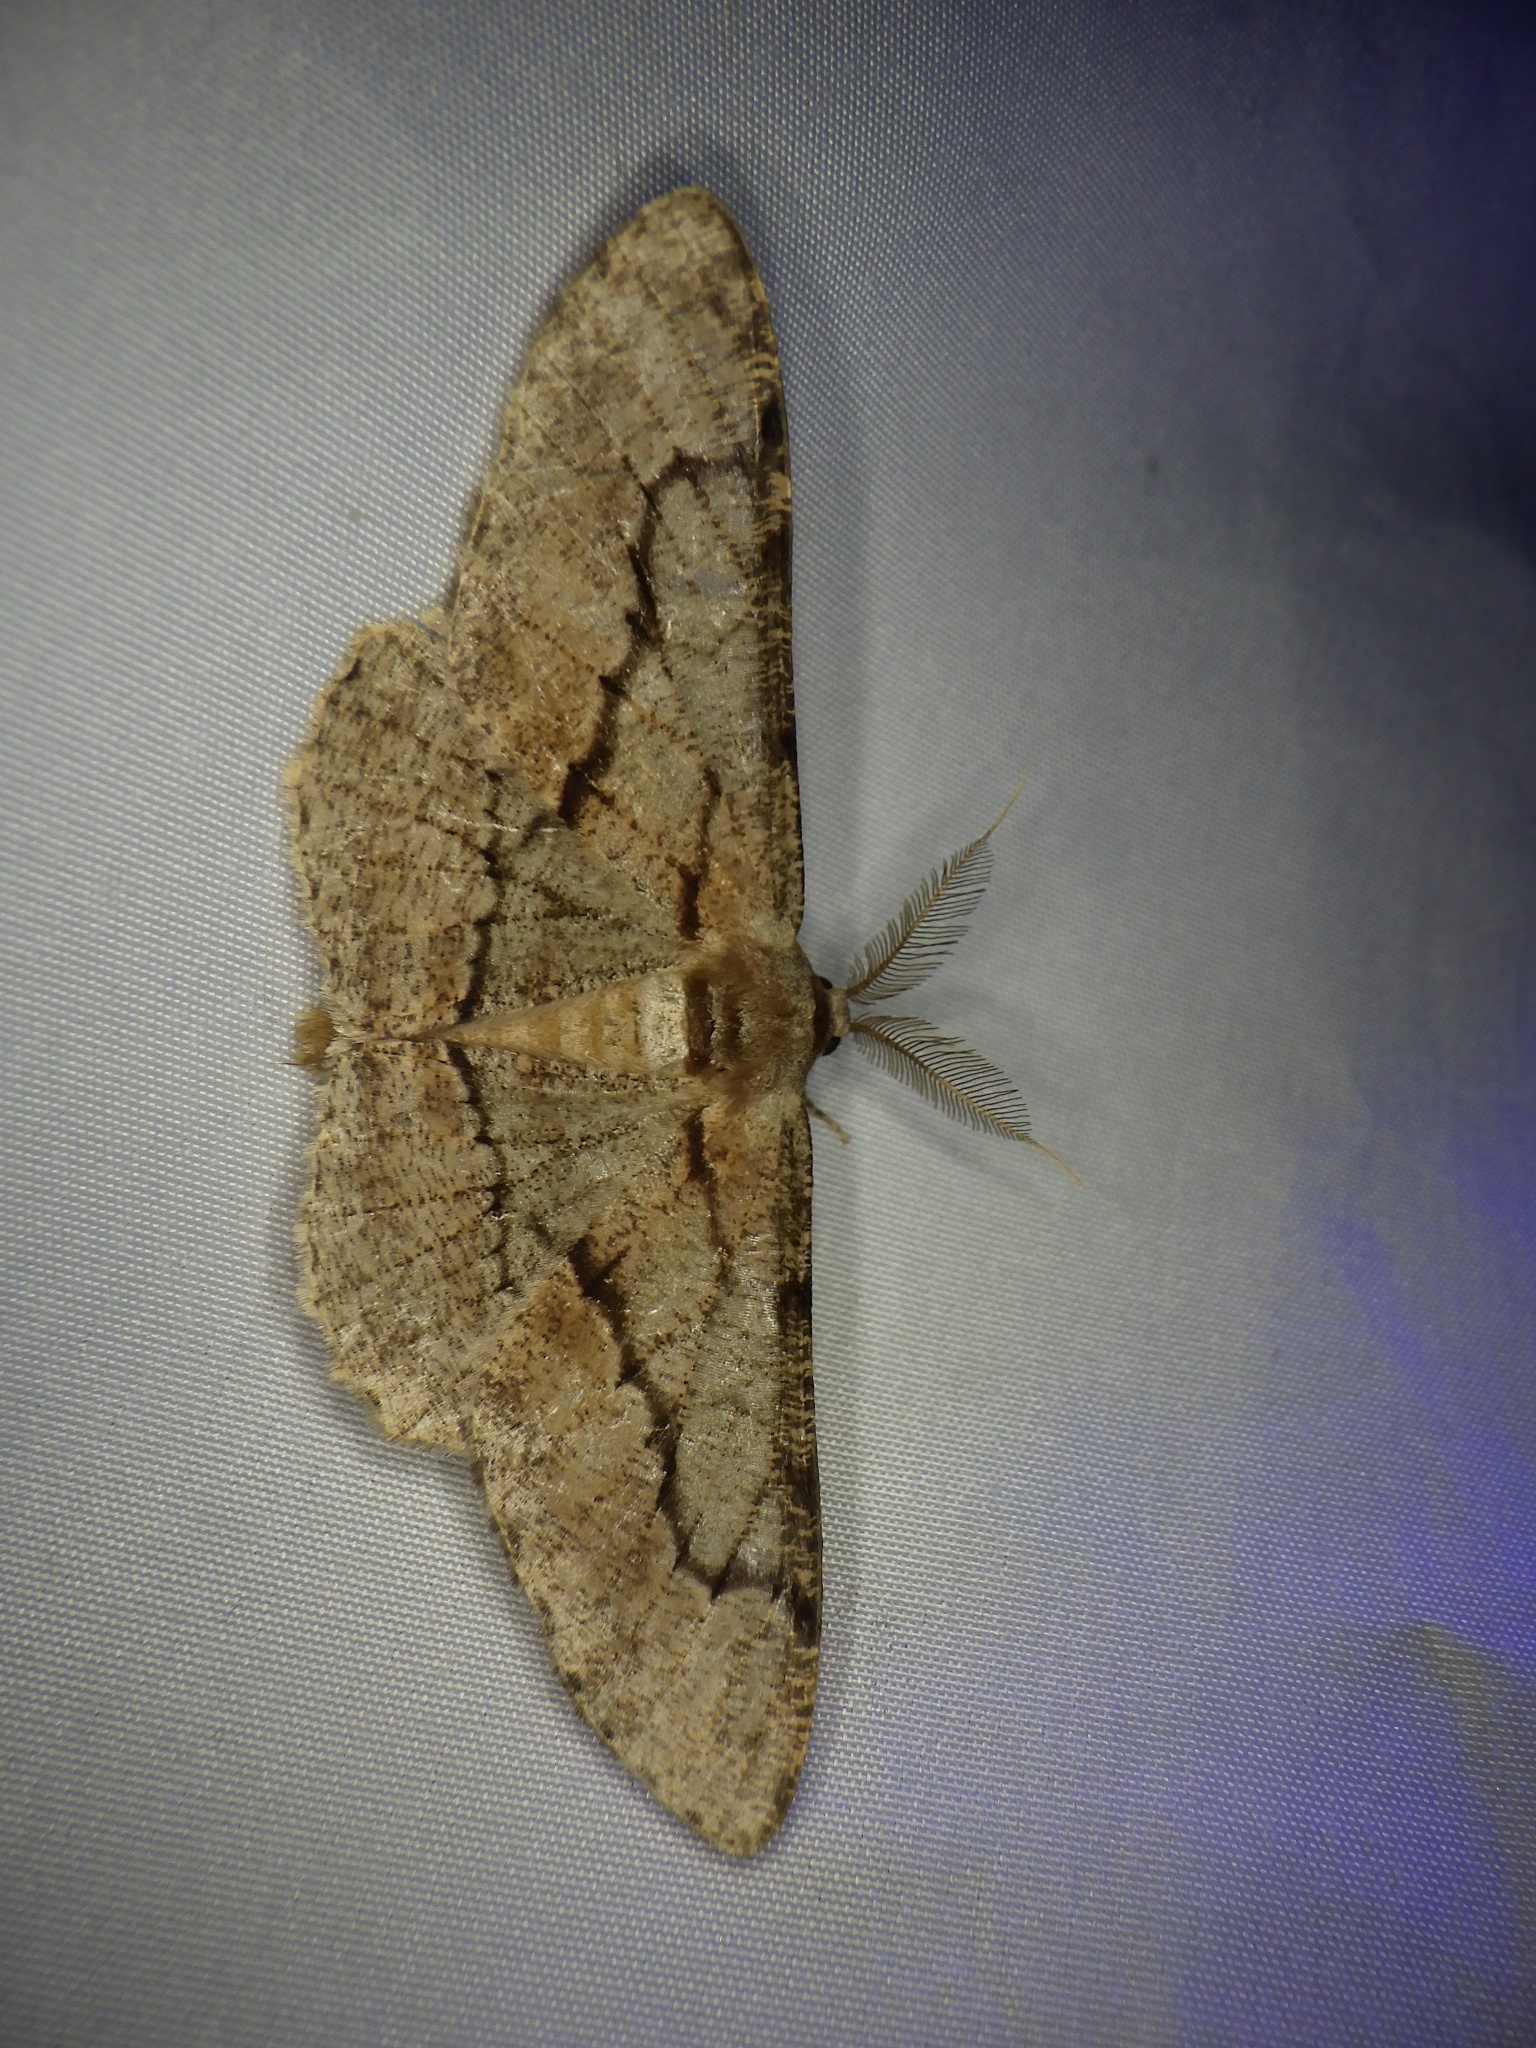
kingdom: Animalia
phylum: Arthropoda
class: Insecta
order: Lepidoptera
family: Geometridae
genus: Phthonosema
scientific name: Phthonosema tendinosaria
